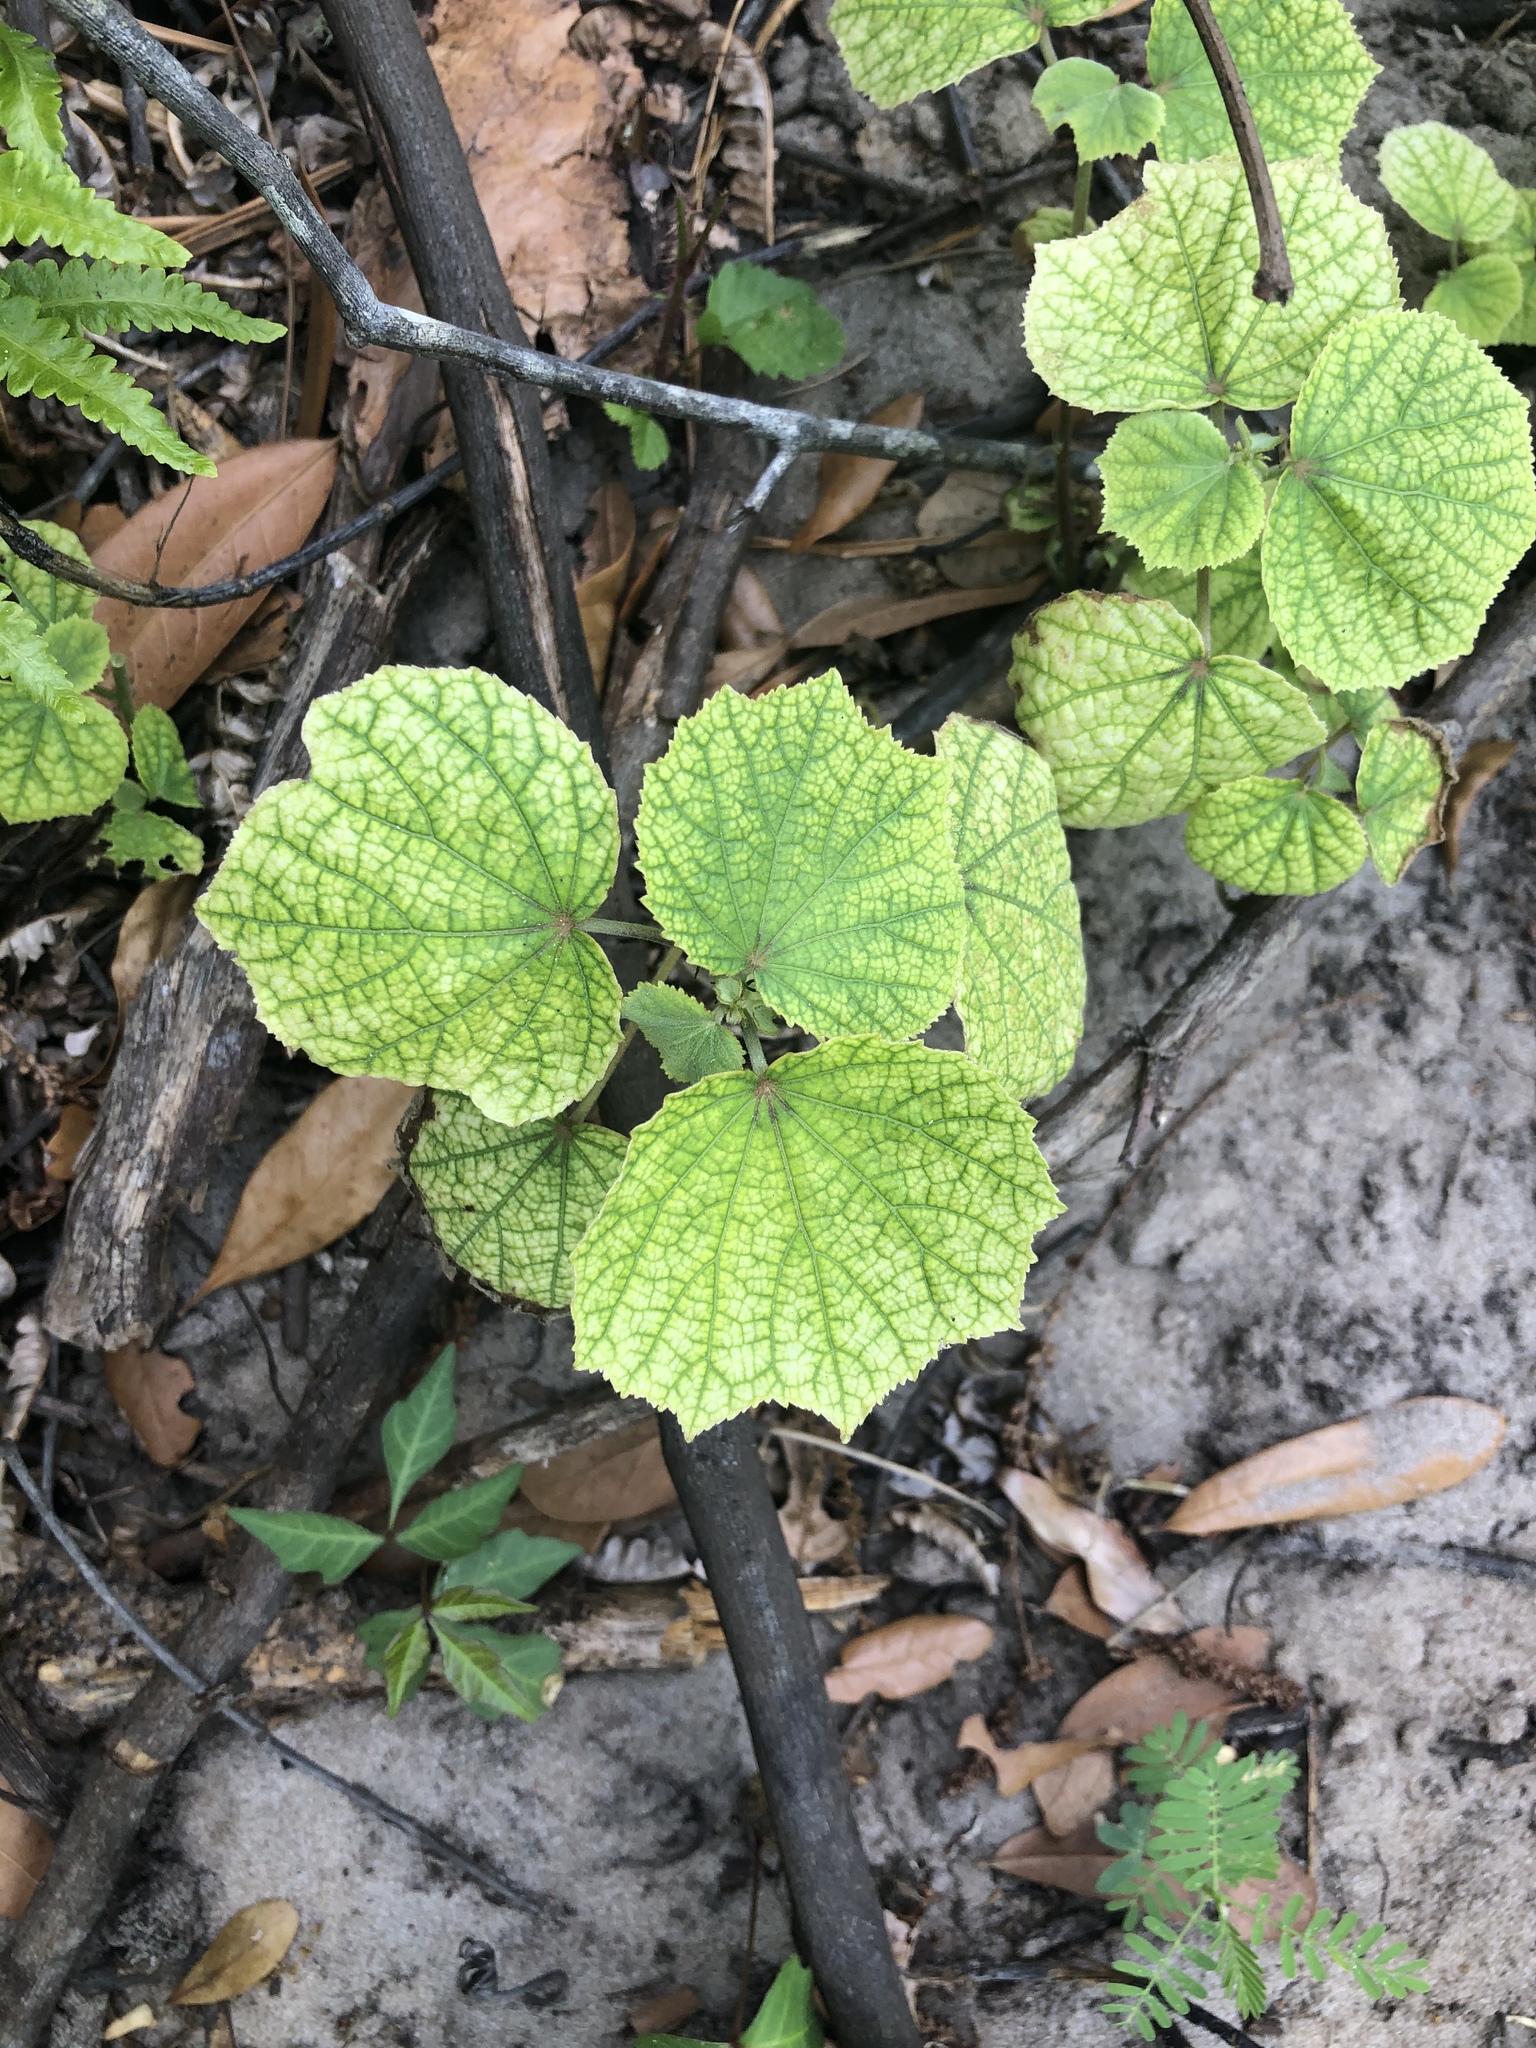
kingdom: Plantae
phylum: Tracheophyta
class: Magnoliopsida
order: Malvales
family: Malvaceae
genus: Urena
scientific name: Urena lobata
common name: Caesarweed
